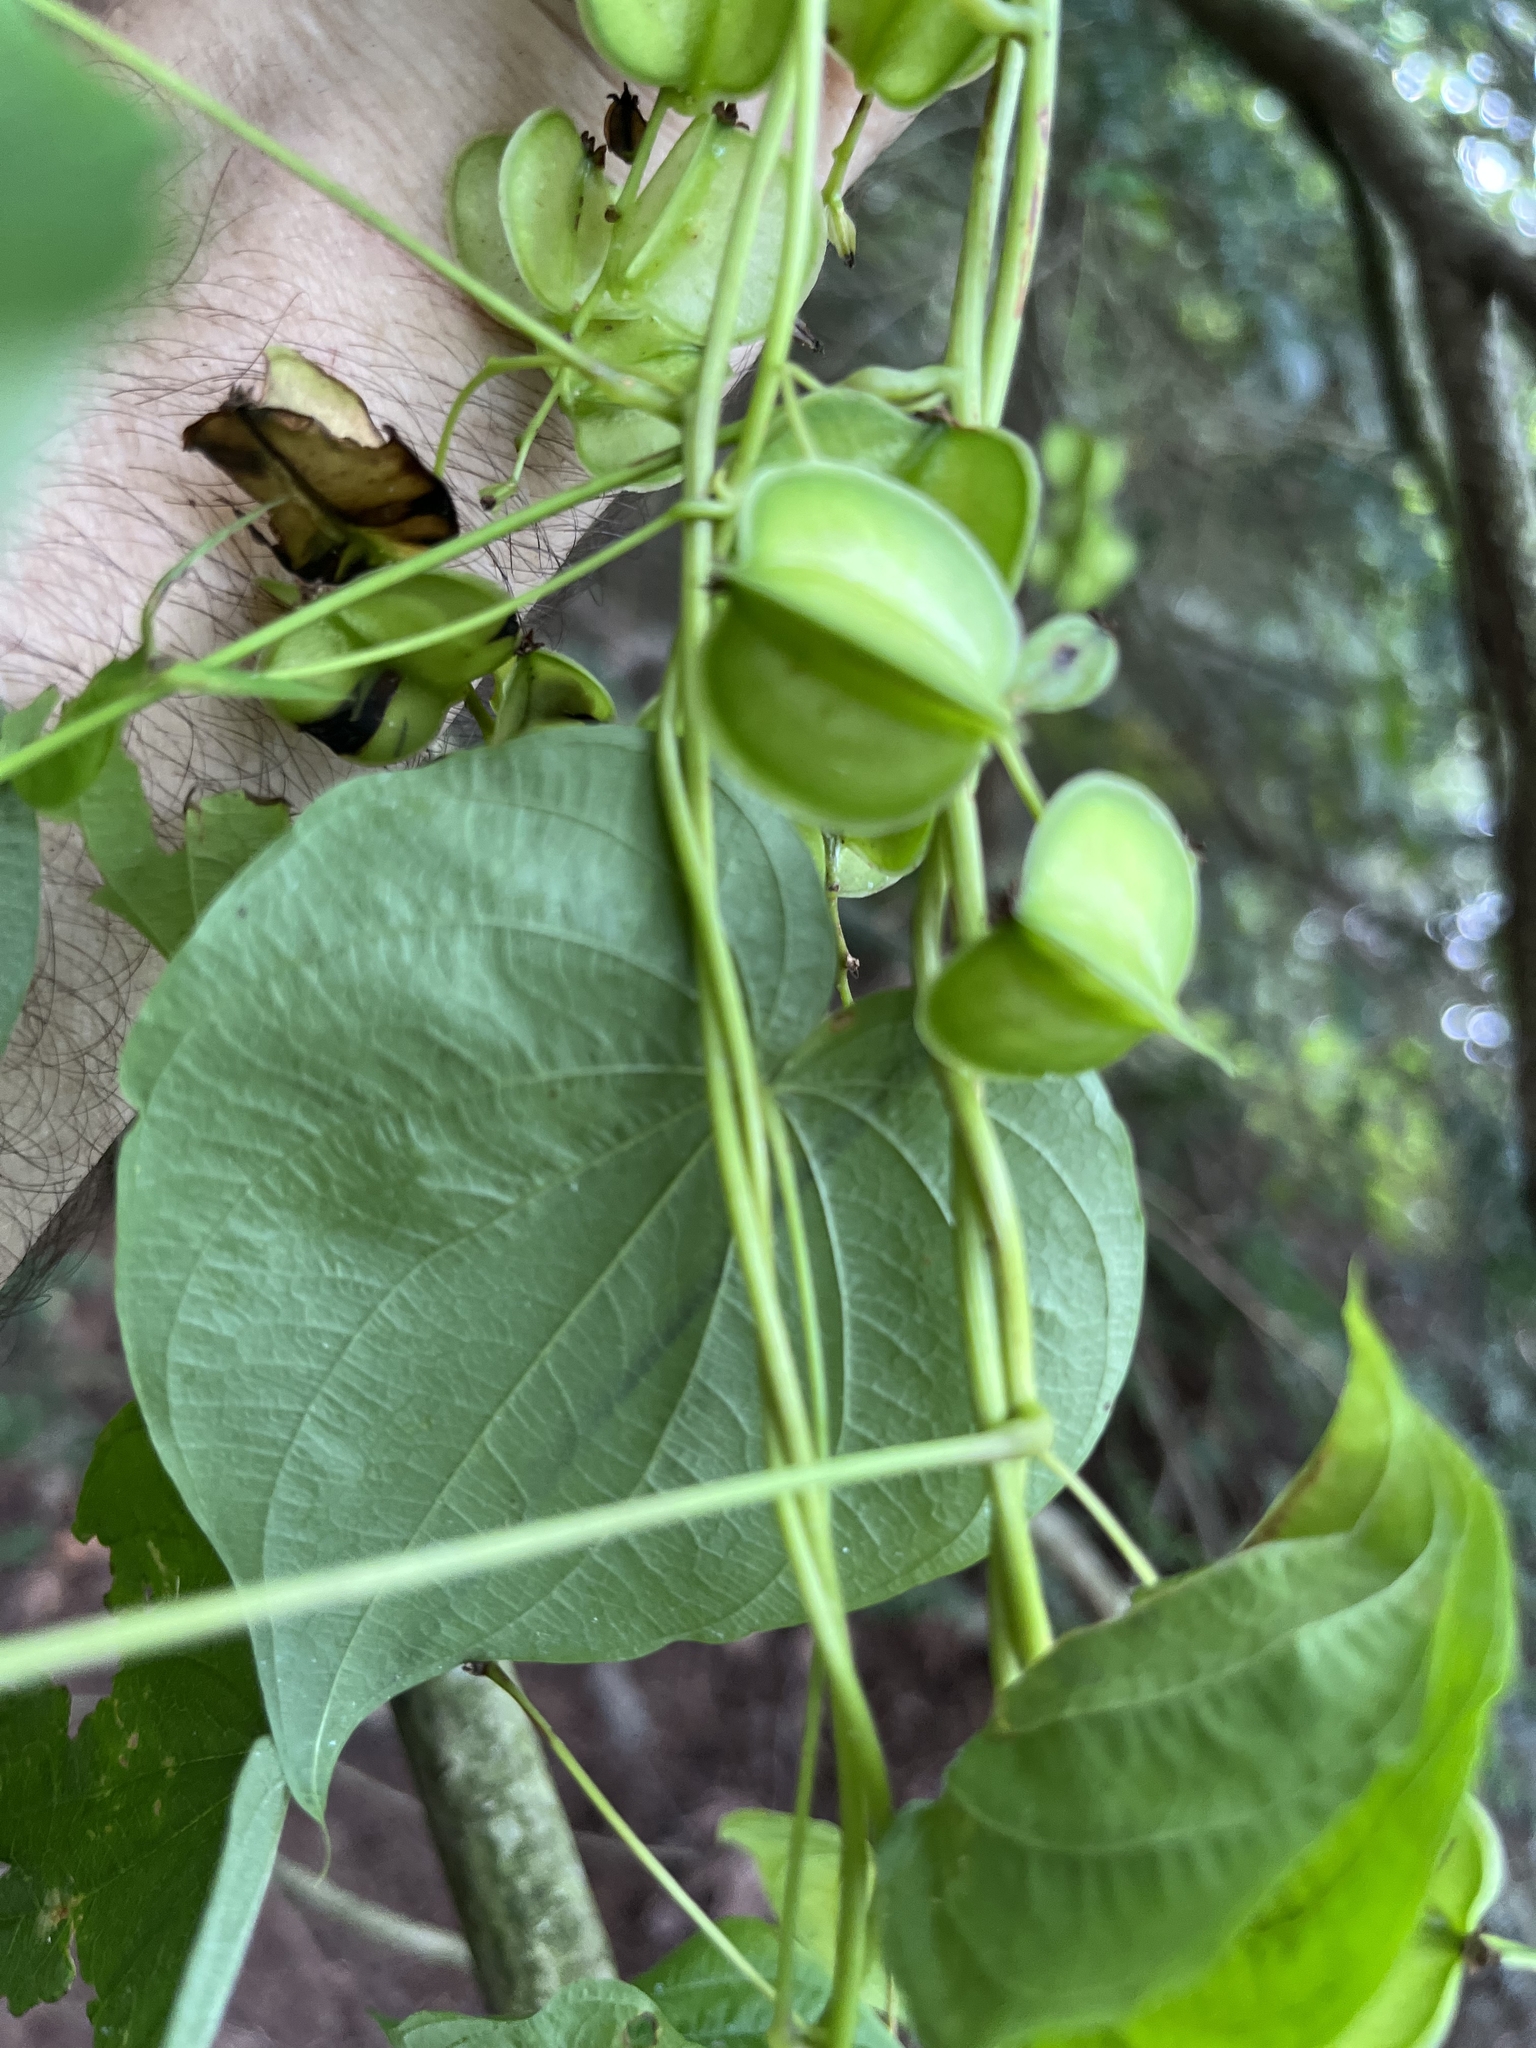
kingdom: Plantae
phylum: Tracheophyta
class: Liliopsida
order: Dioscoreales
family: Dioscoreaceae
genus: Dioscorea
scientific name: Dioscorea villosa
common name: Wild yam
